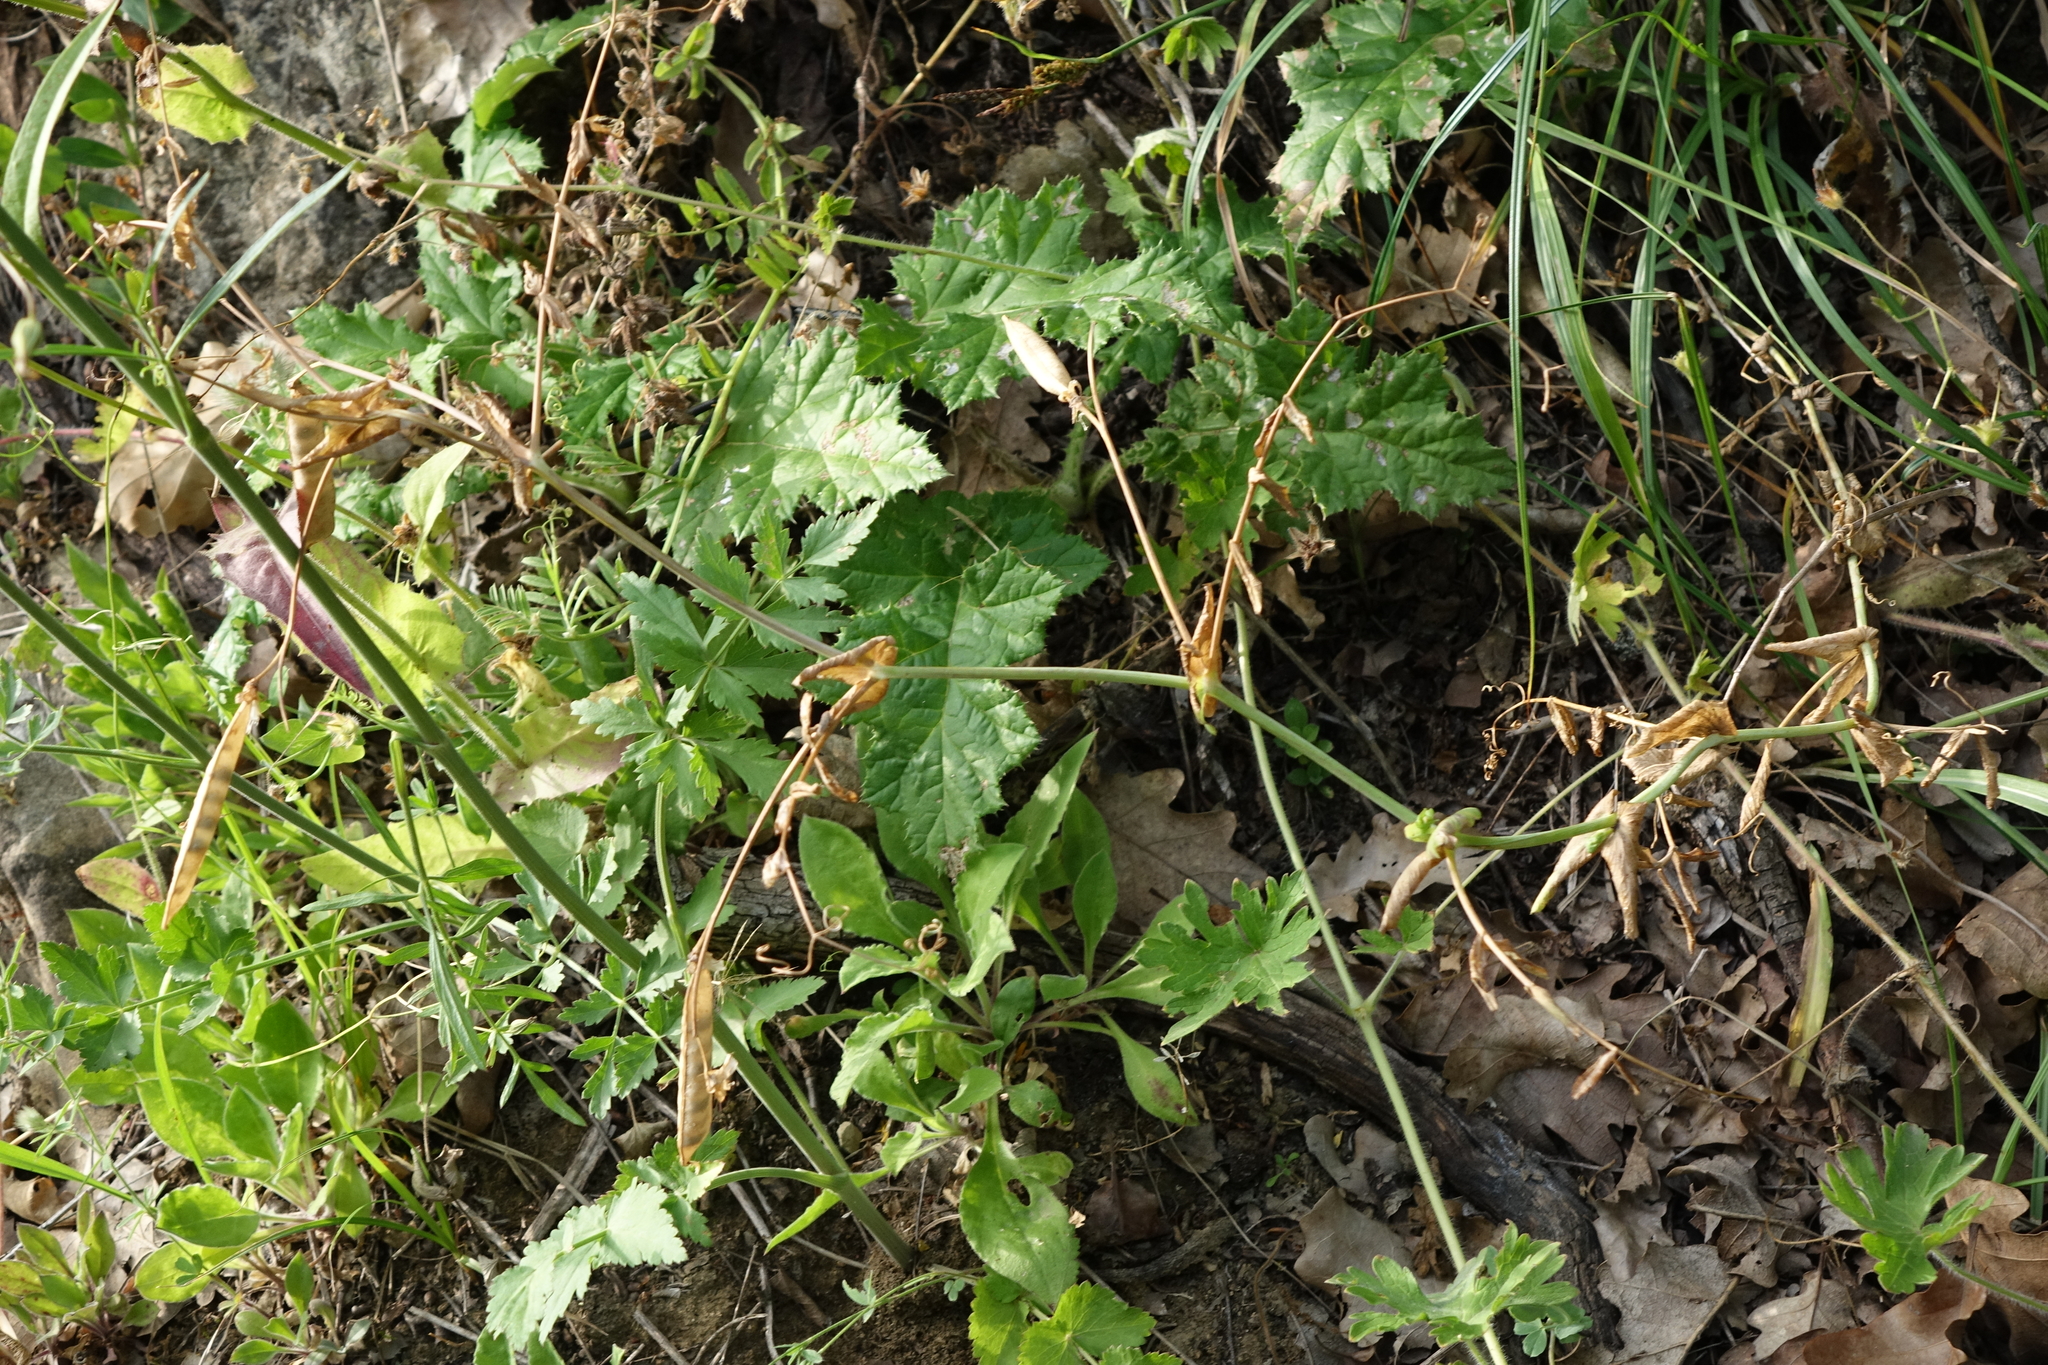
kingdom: Plantae
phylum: Tracheophyta
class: Magnoliopsida
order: Fabales
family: Fabaceae
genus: Lathyrus
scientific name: Lathyrus oleraceus
